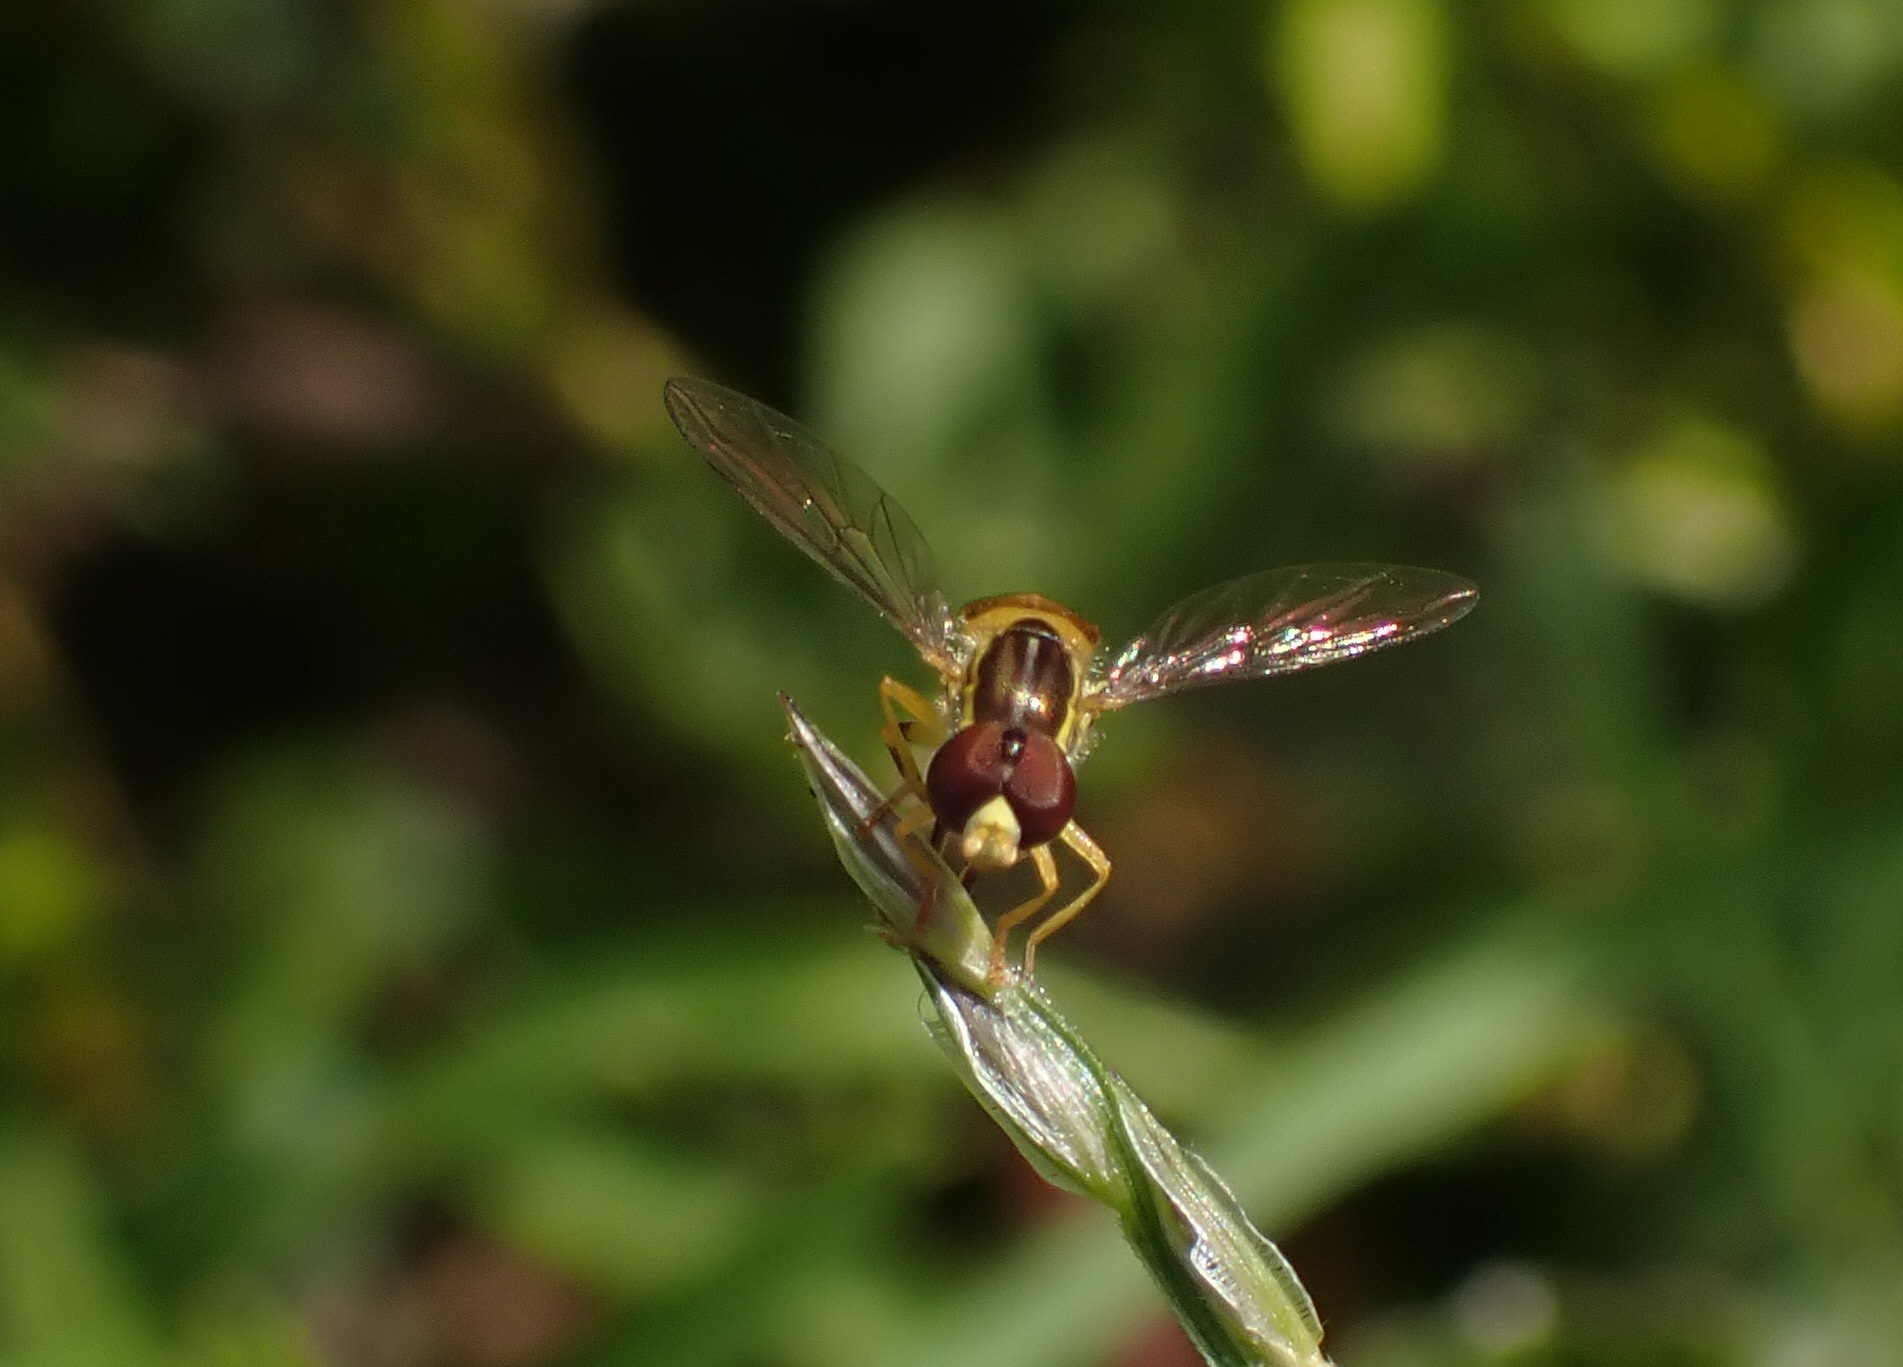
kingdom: Animalia
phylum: Arthropoda
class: Insecta
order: Diptera
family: Syrphidae
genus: Toxomerus
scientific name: Toxomerus
